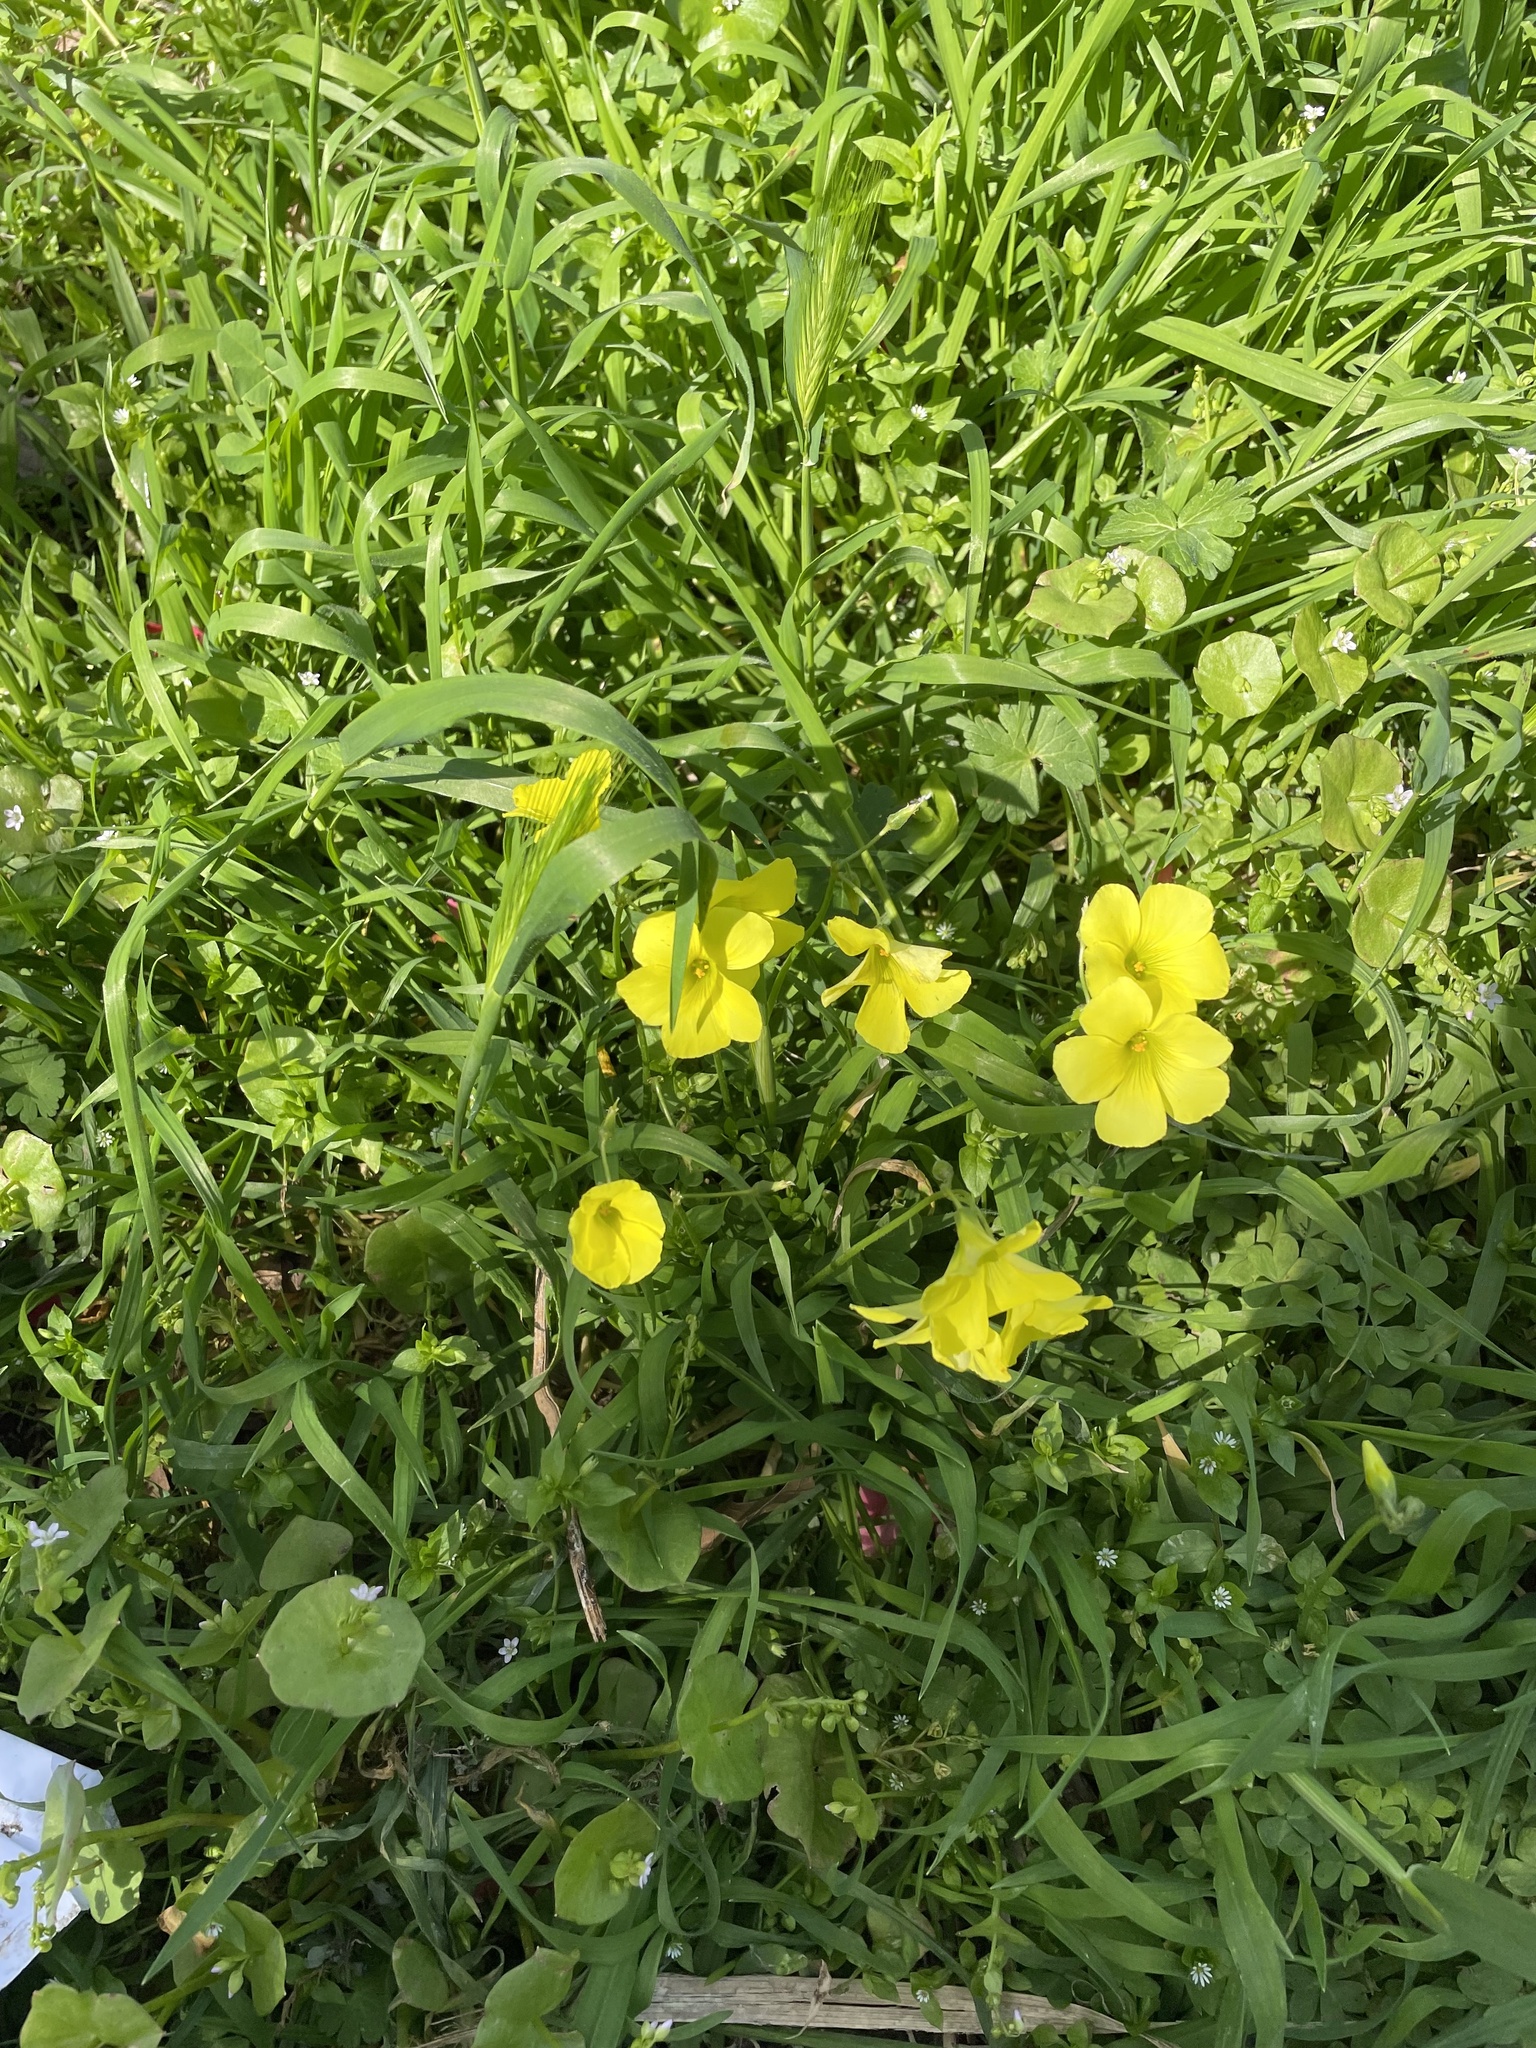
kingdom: Plantae
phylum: Tracheophyta
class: Magnoliopsida
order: Oxalidales
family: Oxalidaceae
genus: Oxalis
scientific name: Oxalis pes-caprae
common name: Bermuda-buttercup
